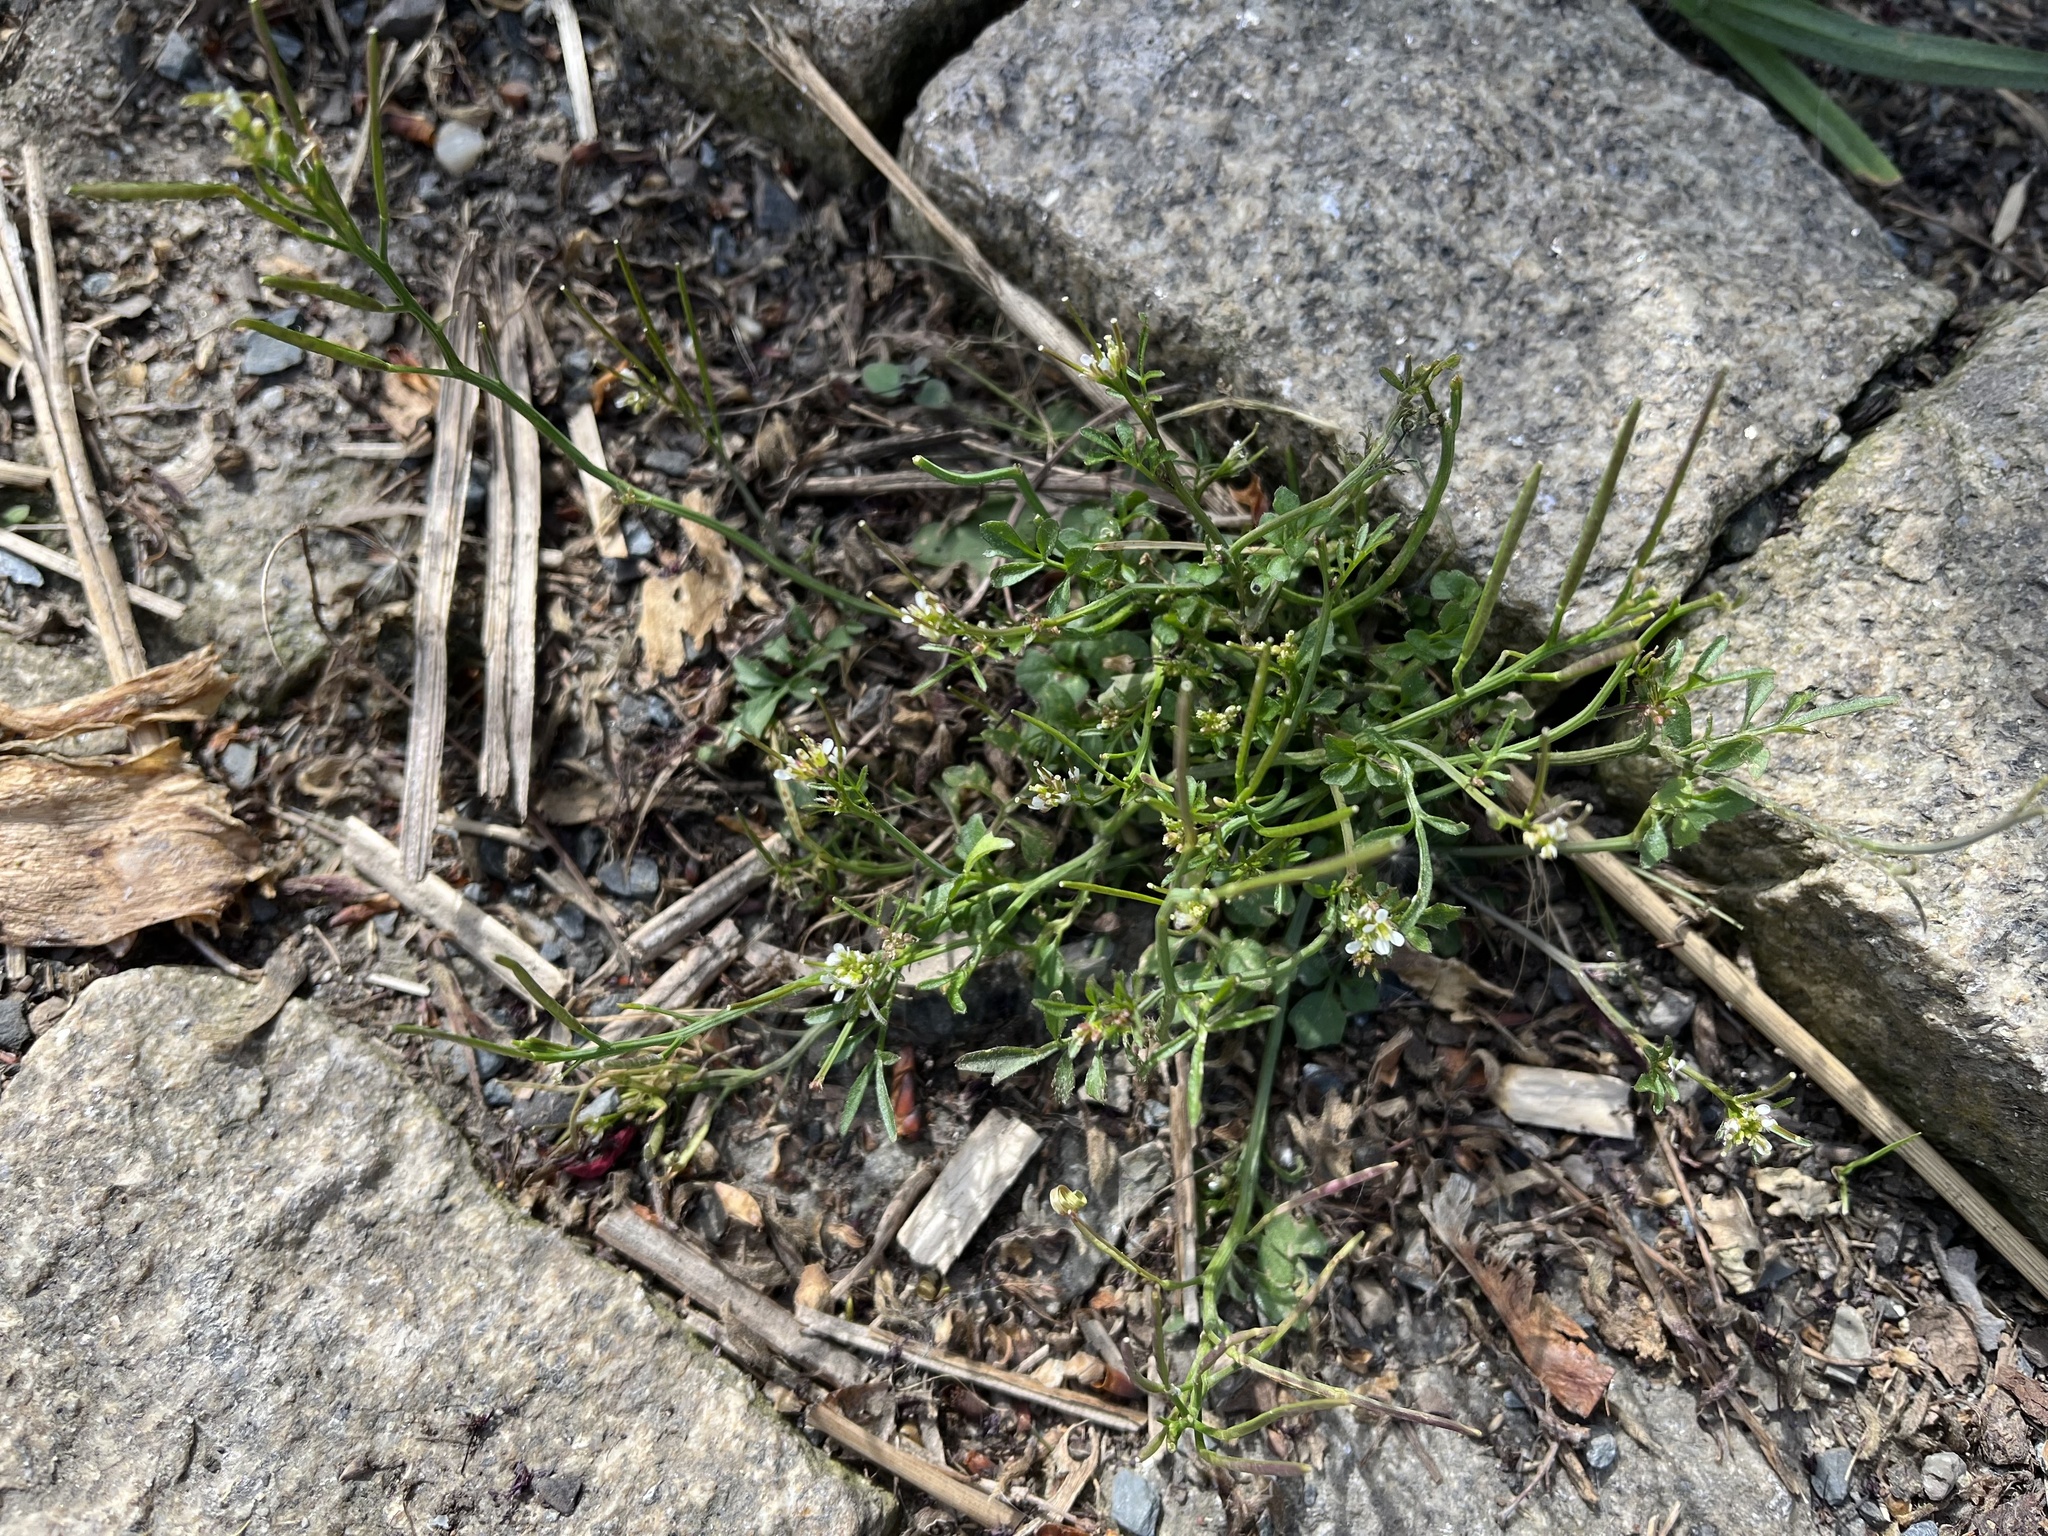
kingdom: Plantae
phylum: Tracheophyta
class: Magnoliopsida
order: Brassicales
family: Brassicaceae
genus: Cardamine
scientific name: Cardamine hirsuta
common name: Hairy bittercress
